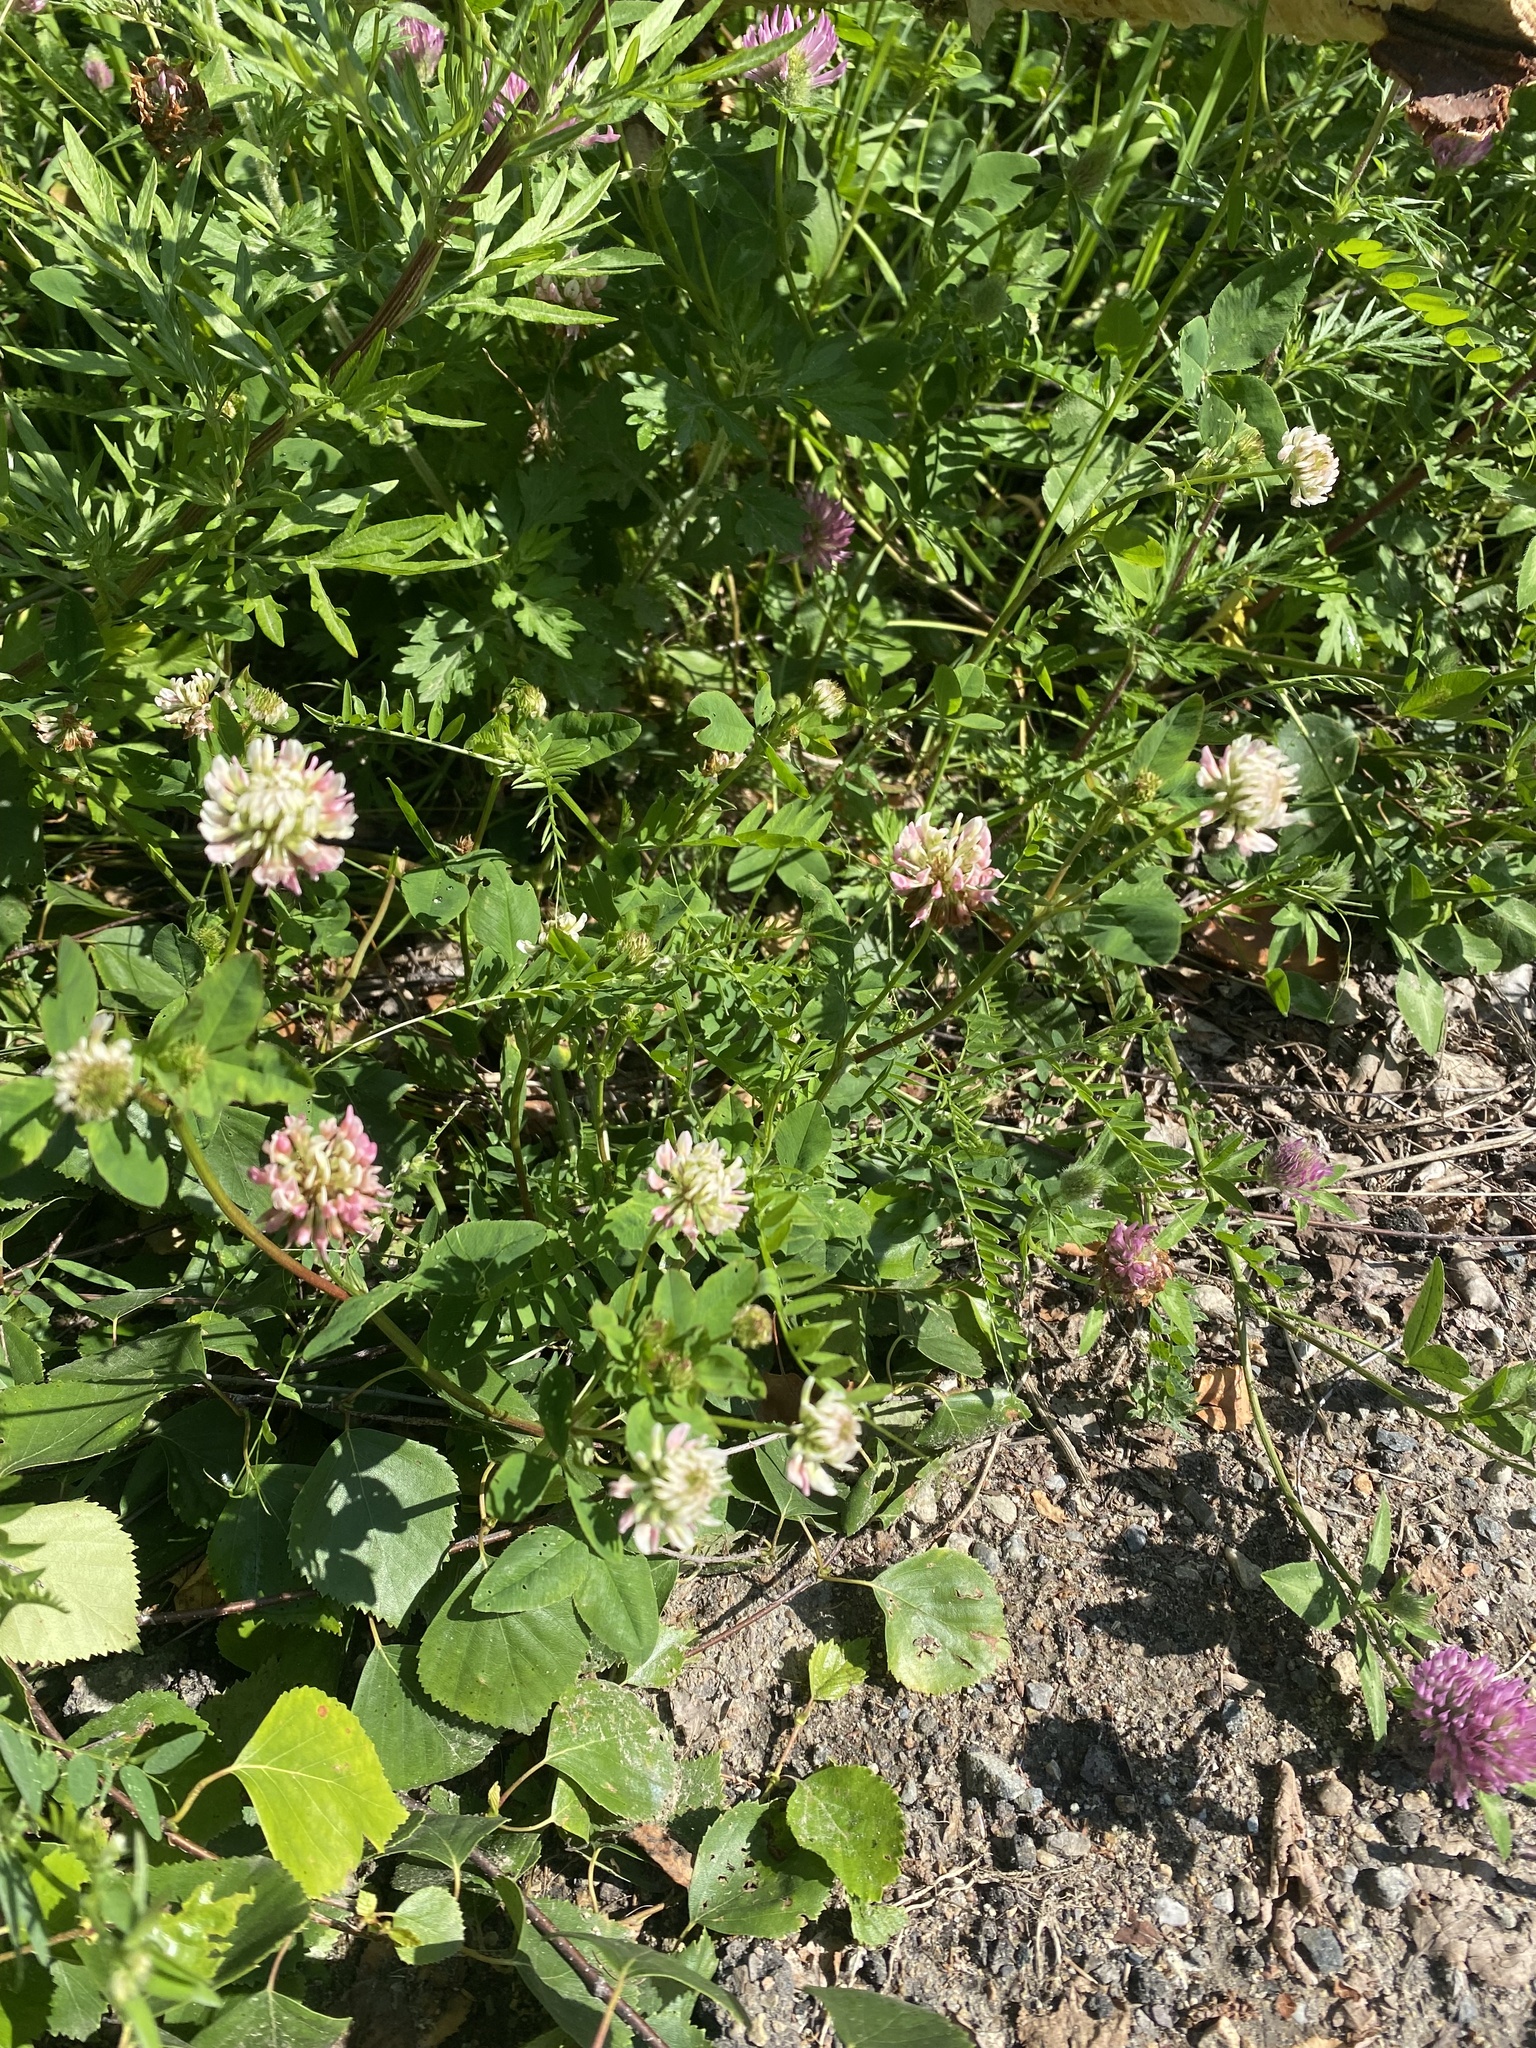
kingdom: Plantae
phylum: Tracheophyta
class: Magnoliopsida
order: Fabales
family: Fabaceae
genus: Trifolium
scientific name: Trifolium hybridum
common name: Alsike clover
